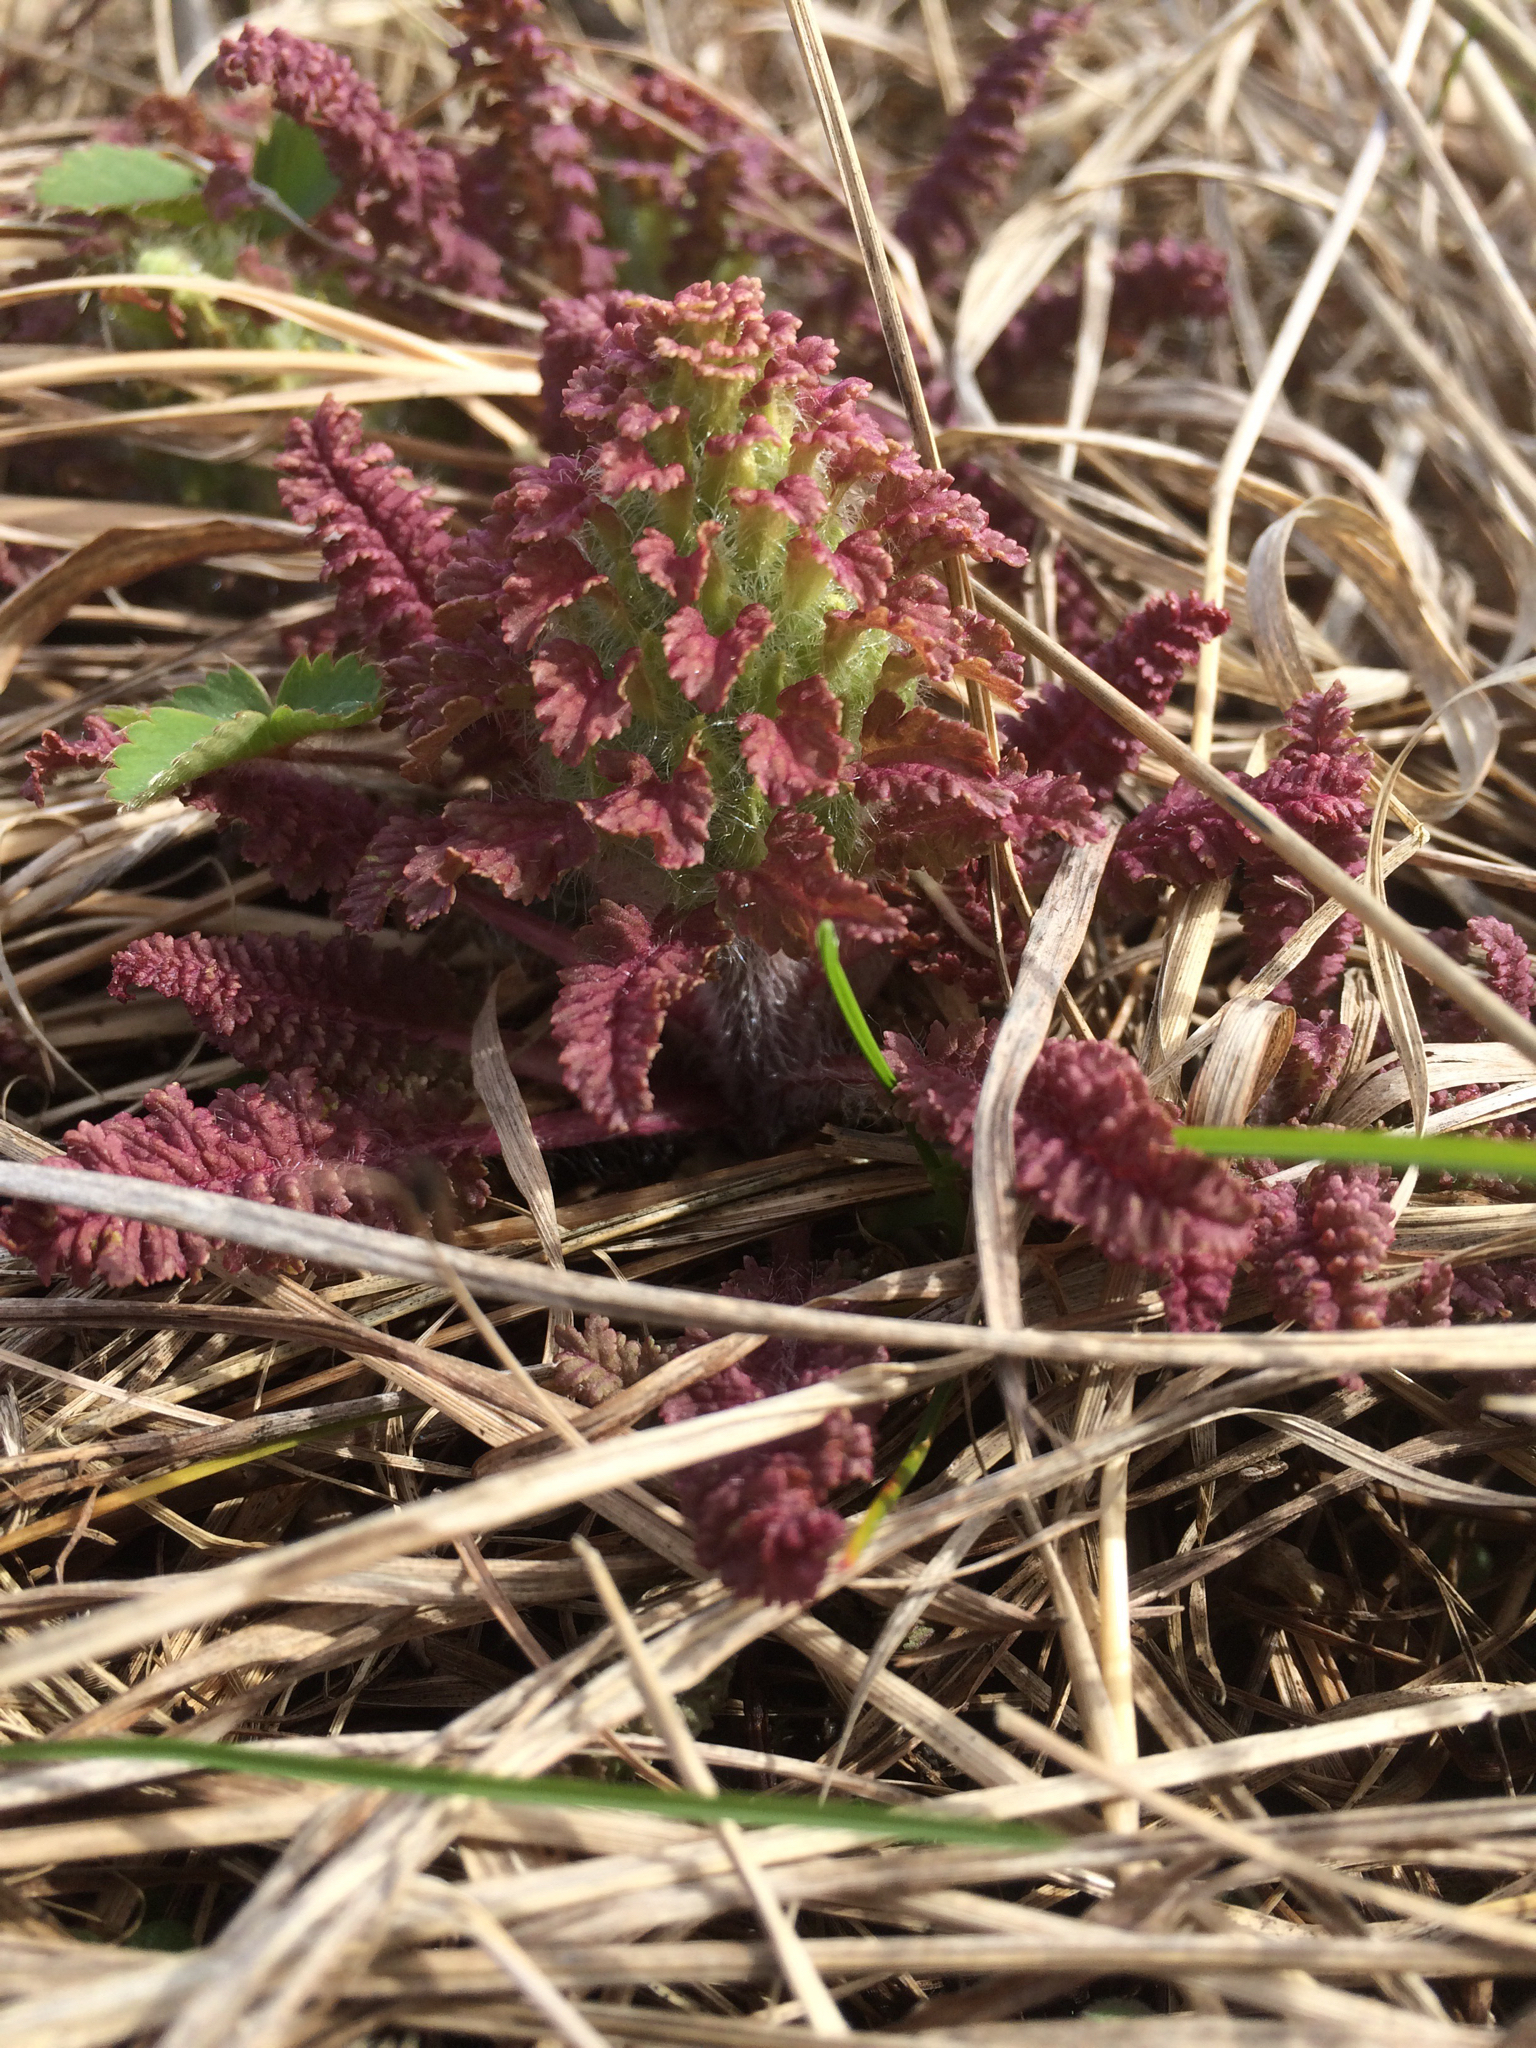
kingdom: Plantae
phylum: Tracheophyta
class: Magnoliopsida
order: Lamiales
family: Orobanchaceae
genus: Pedicularis
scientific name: Pedicularis canadensis
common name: Early lousewort
